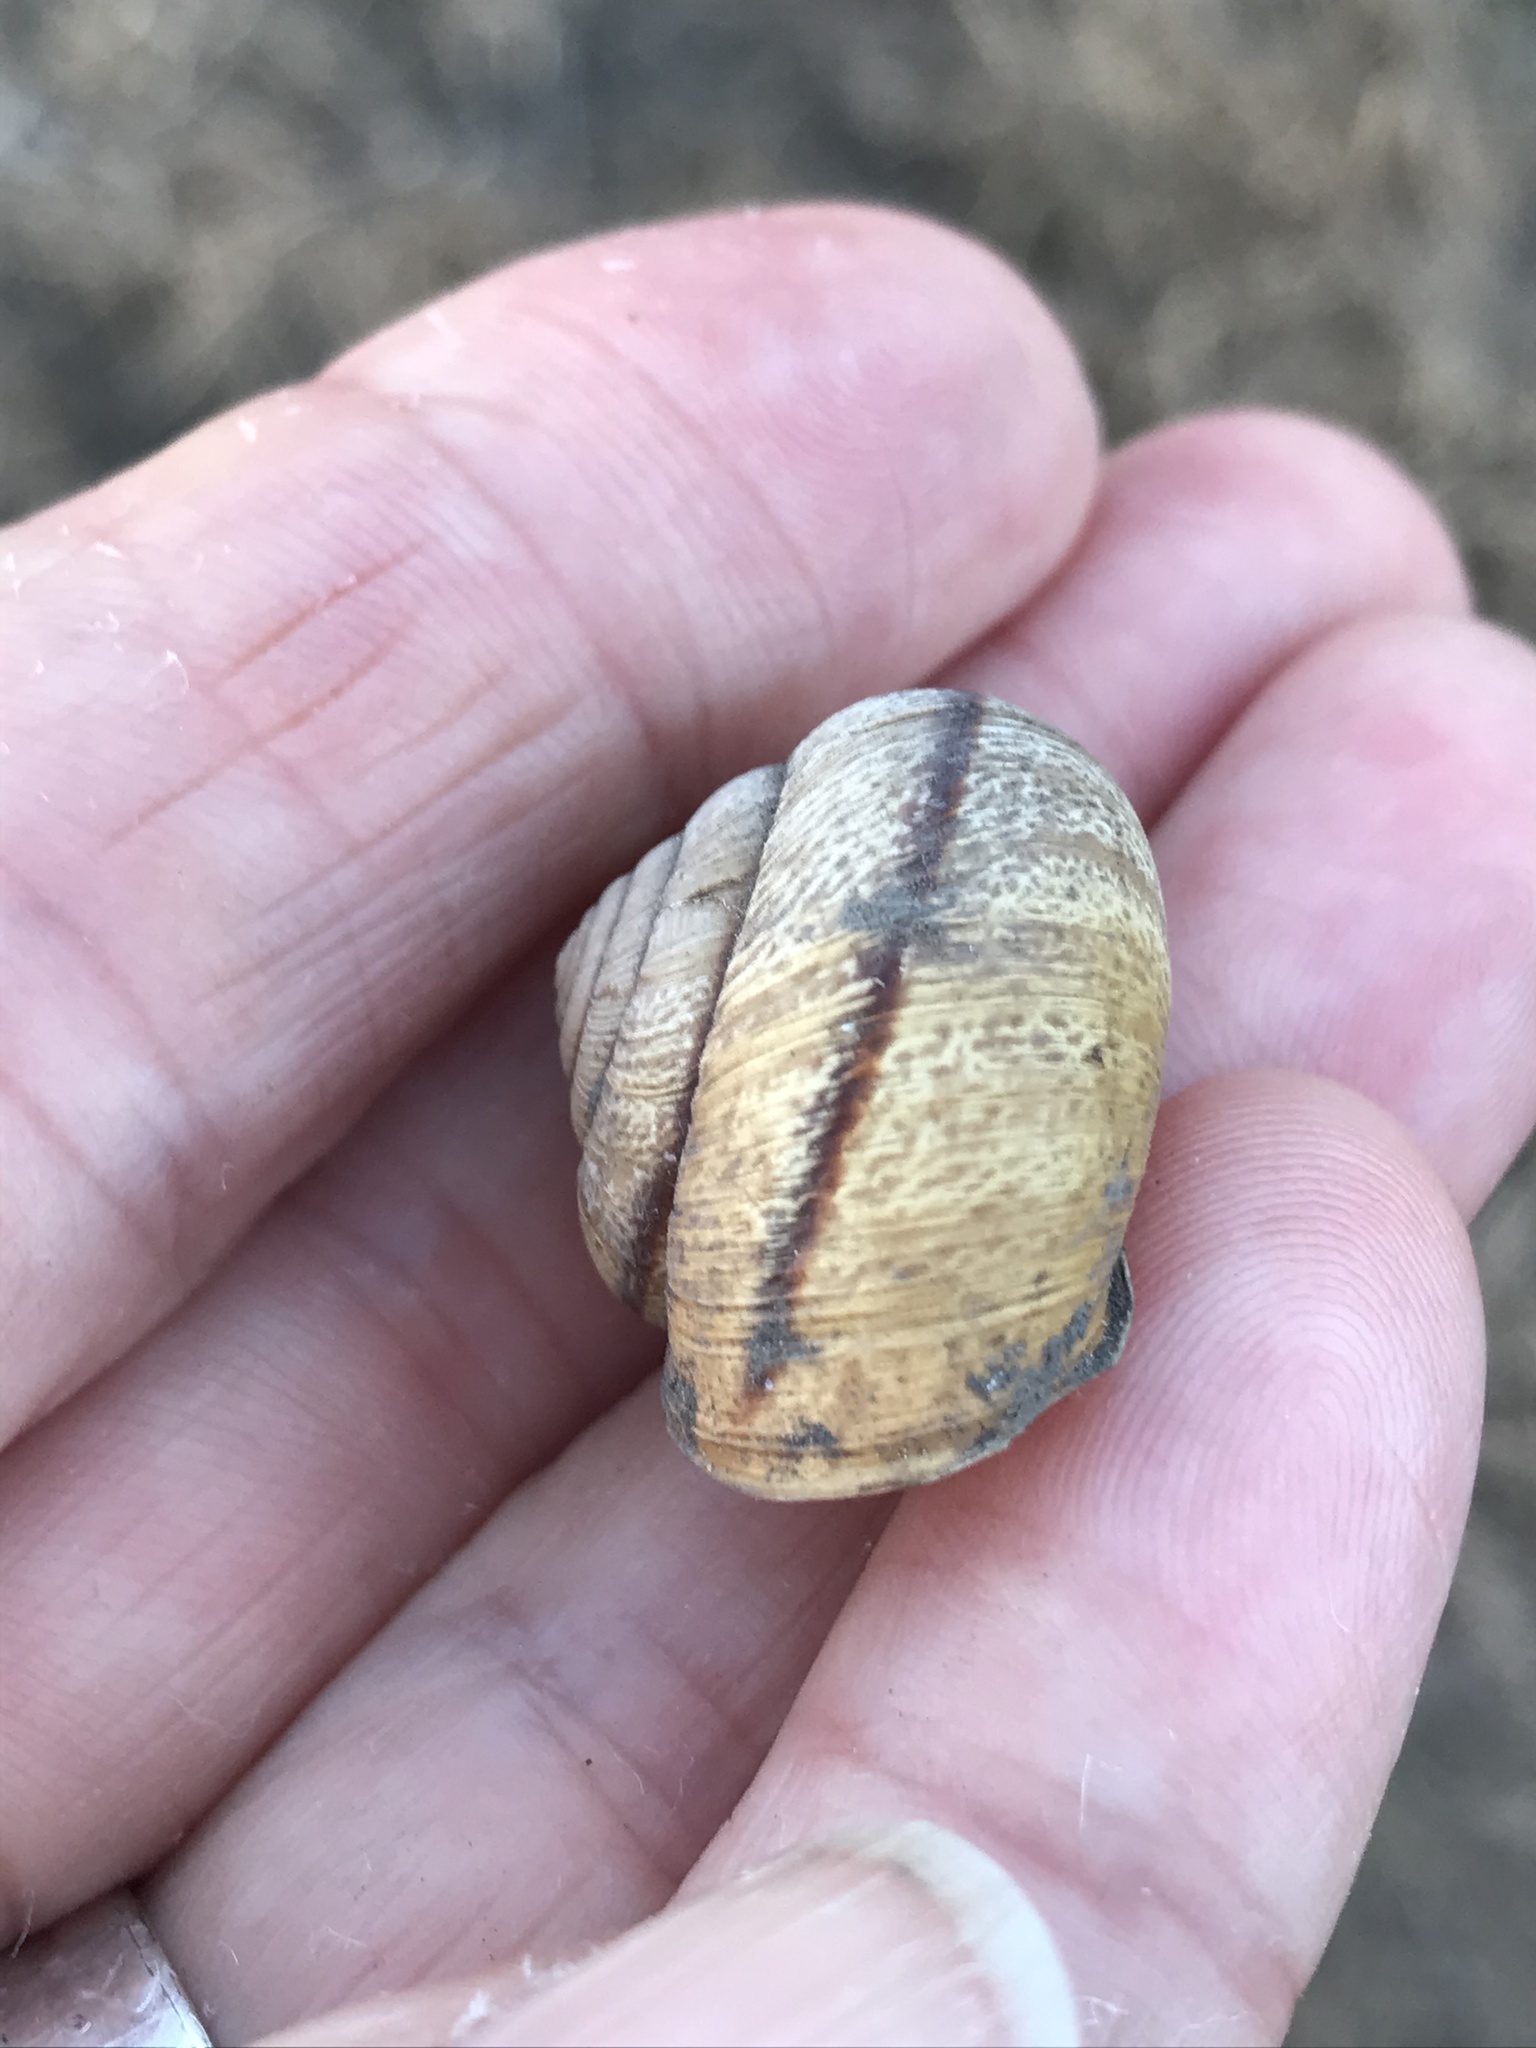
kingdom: Animalia
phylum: Mollusca
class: Gastropoda
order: Stylommatophora
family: Xanthonychidae
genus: Helminthoglypta
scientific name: Helminthoglypta stiversiana
